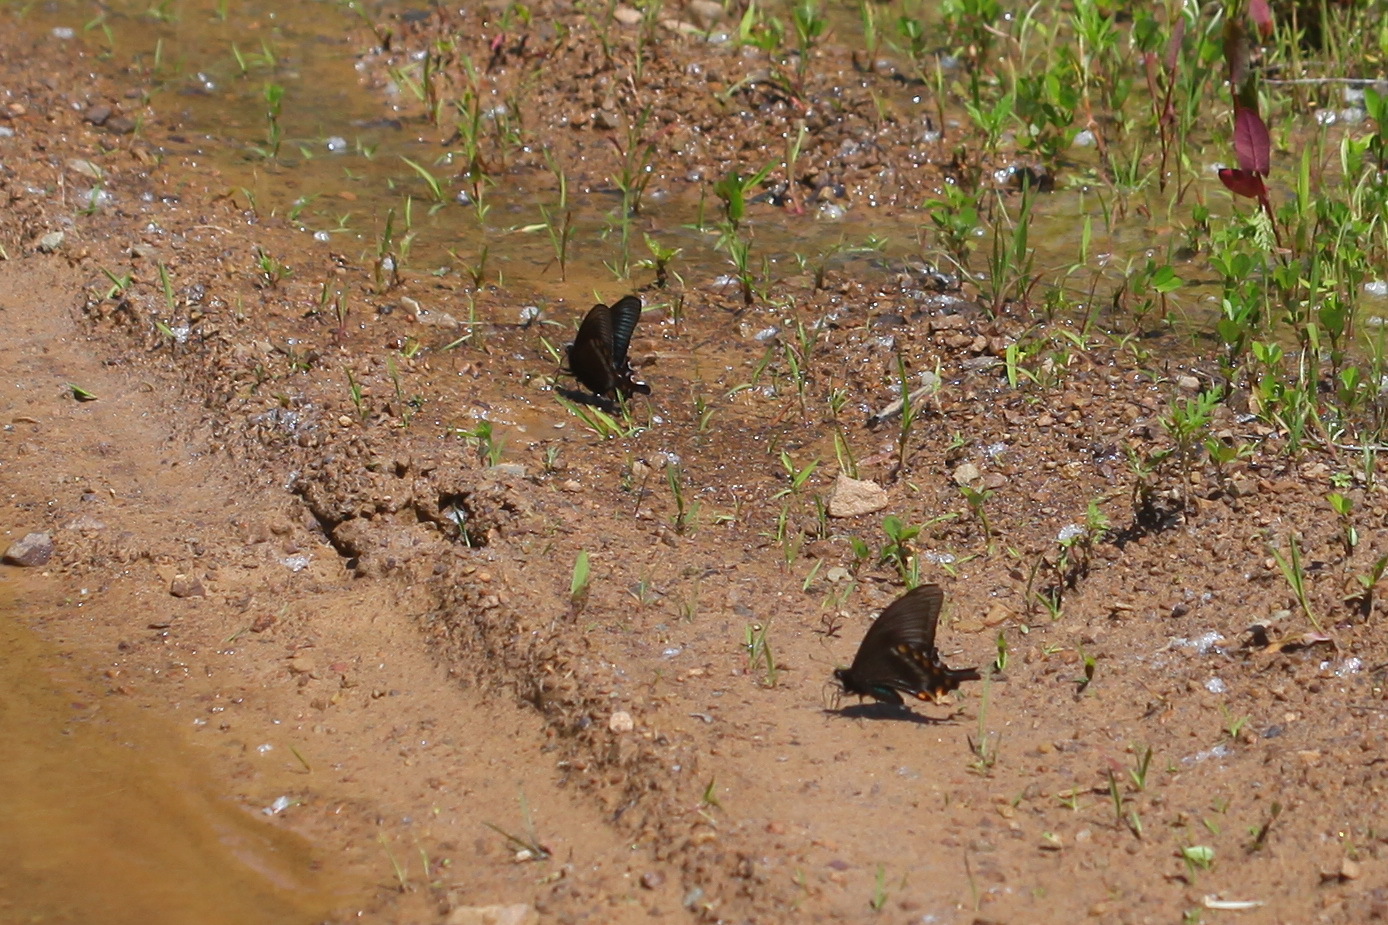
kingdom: Animalia
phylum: Arthropoda
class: Insecta
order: Lepidoptera
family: Papilionidae
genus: Papilio
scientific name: Papilio maackii
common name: Alpine black swallowtail
